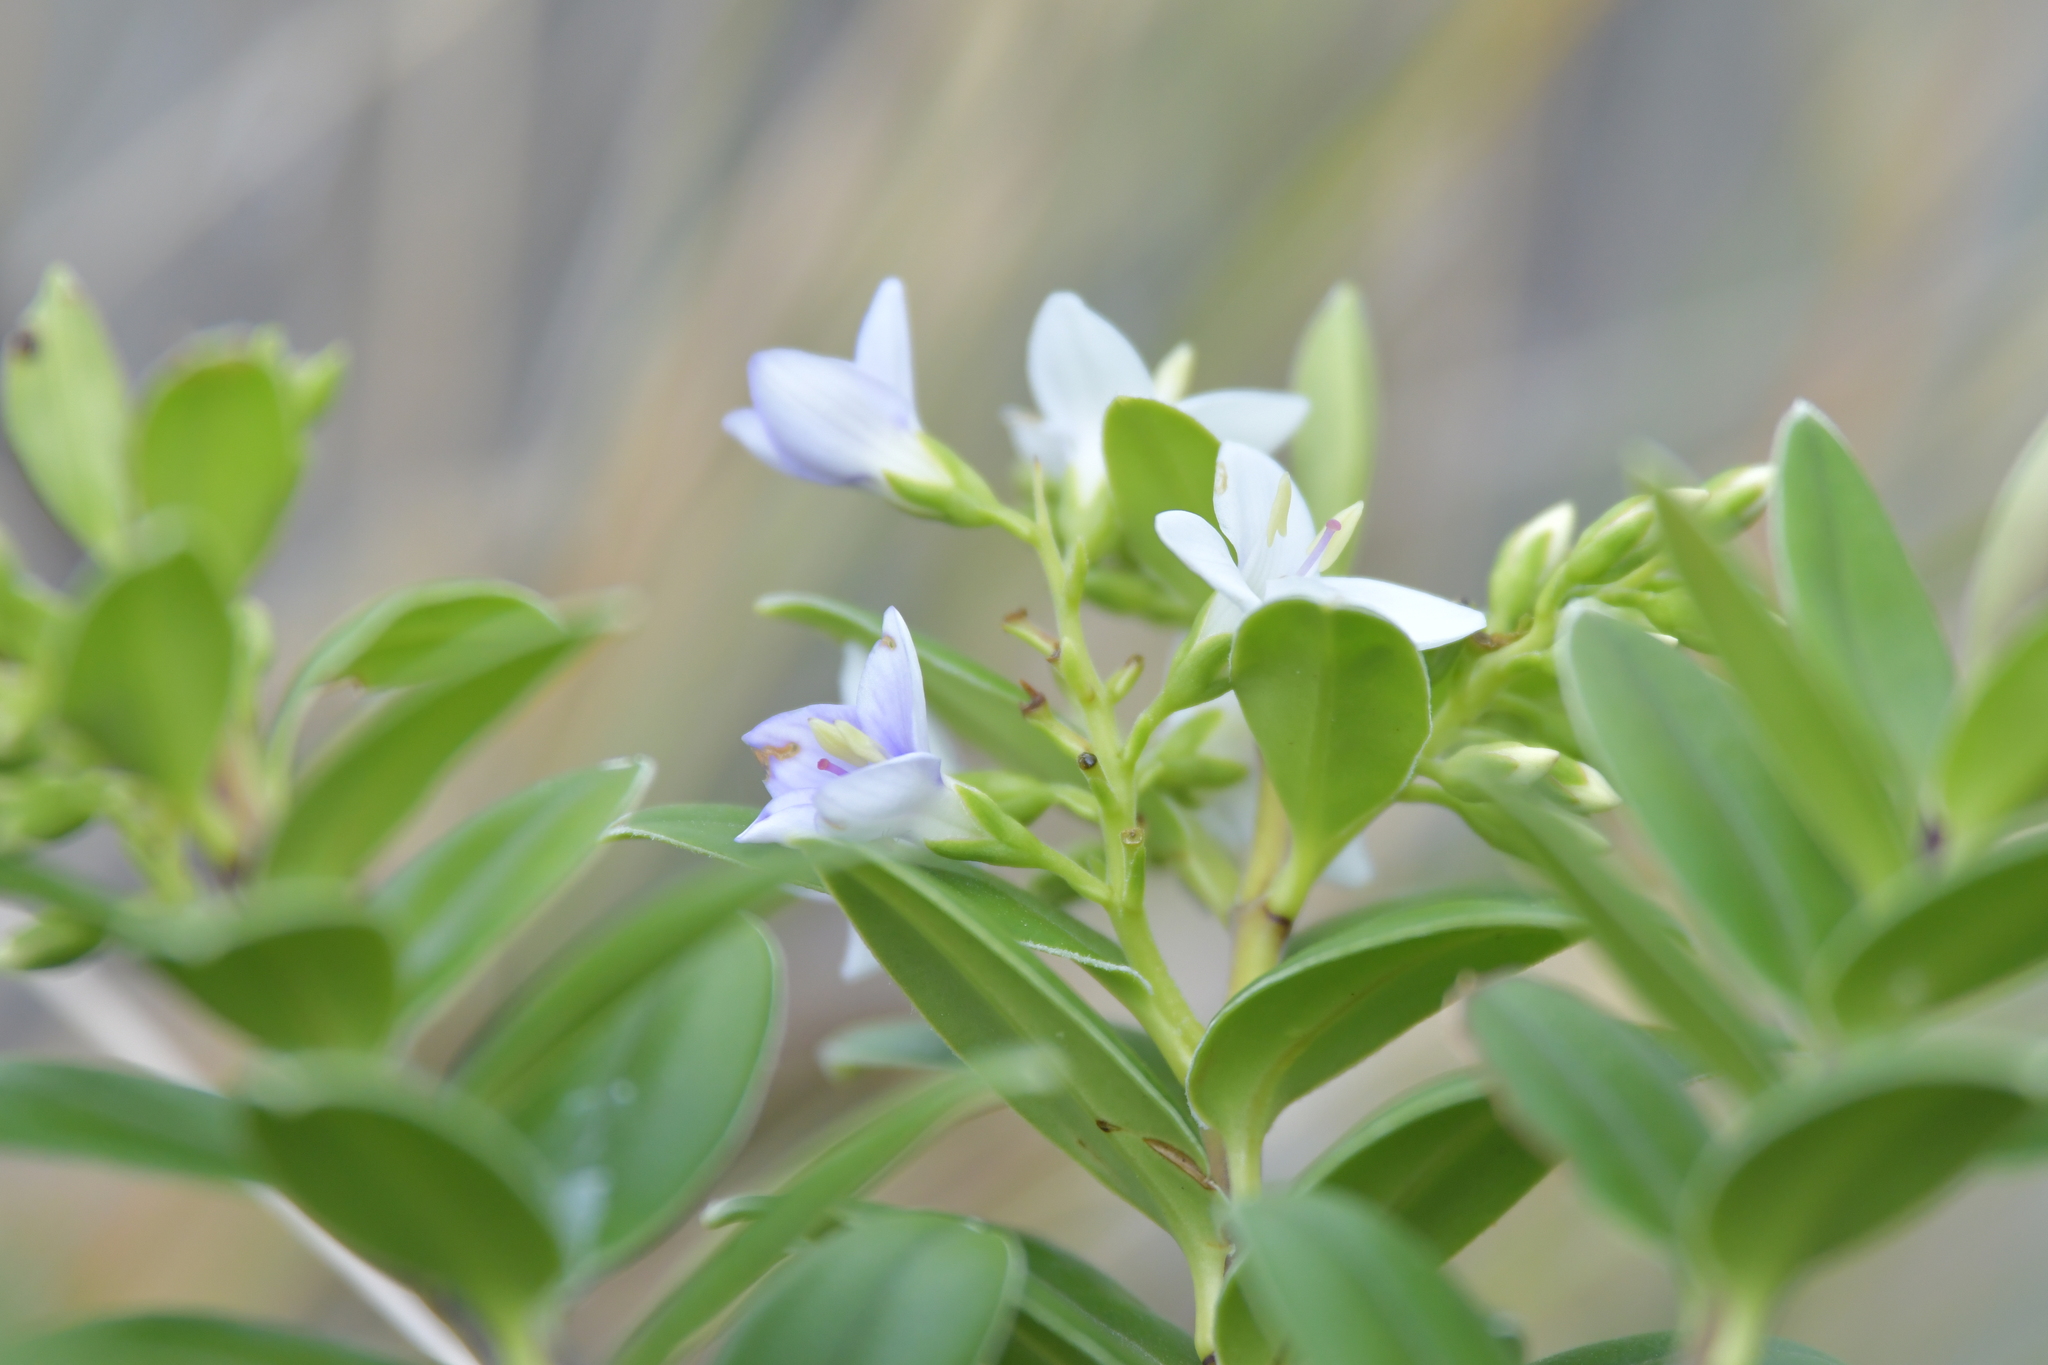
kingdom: Plantae
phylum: Tracheophyta
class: Magnoliopsida
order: Lamiales
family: Plantaginaceae
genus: Veronica
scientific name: Veronica elliptica
